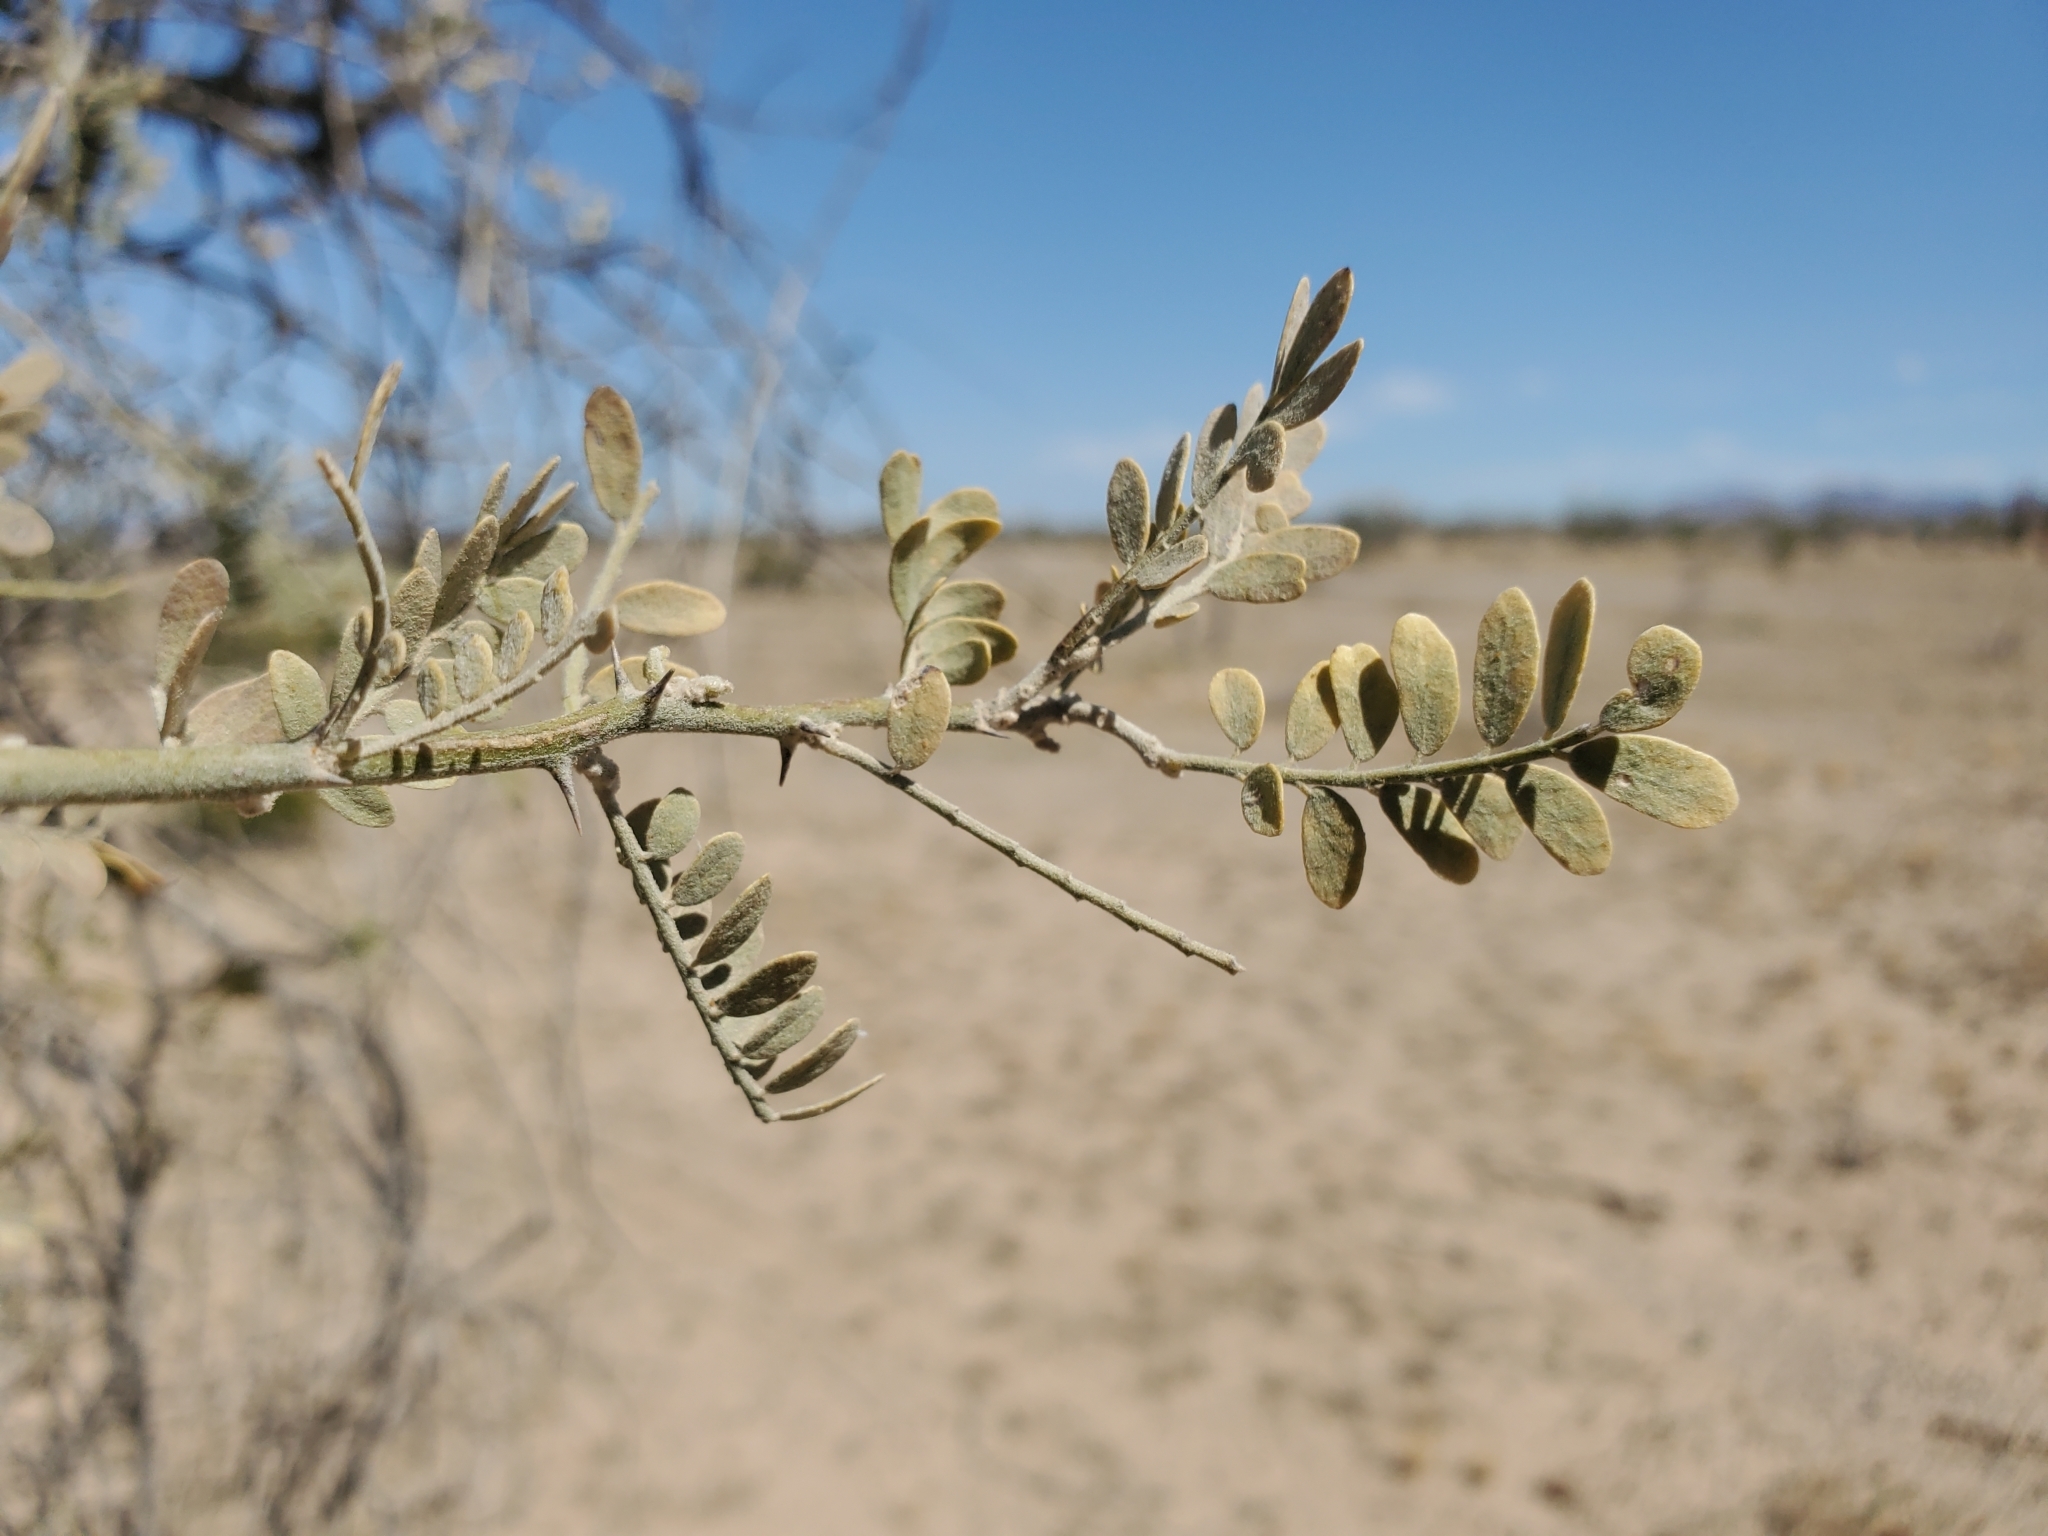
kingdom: Plantae
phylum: Tracheophyta
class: Magnoliopsida
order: Fabales
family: Fabaceae
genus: Olneya
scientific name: Olneya tesota
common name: Desert ironwood
